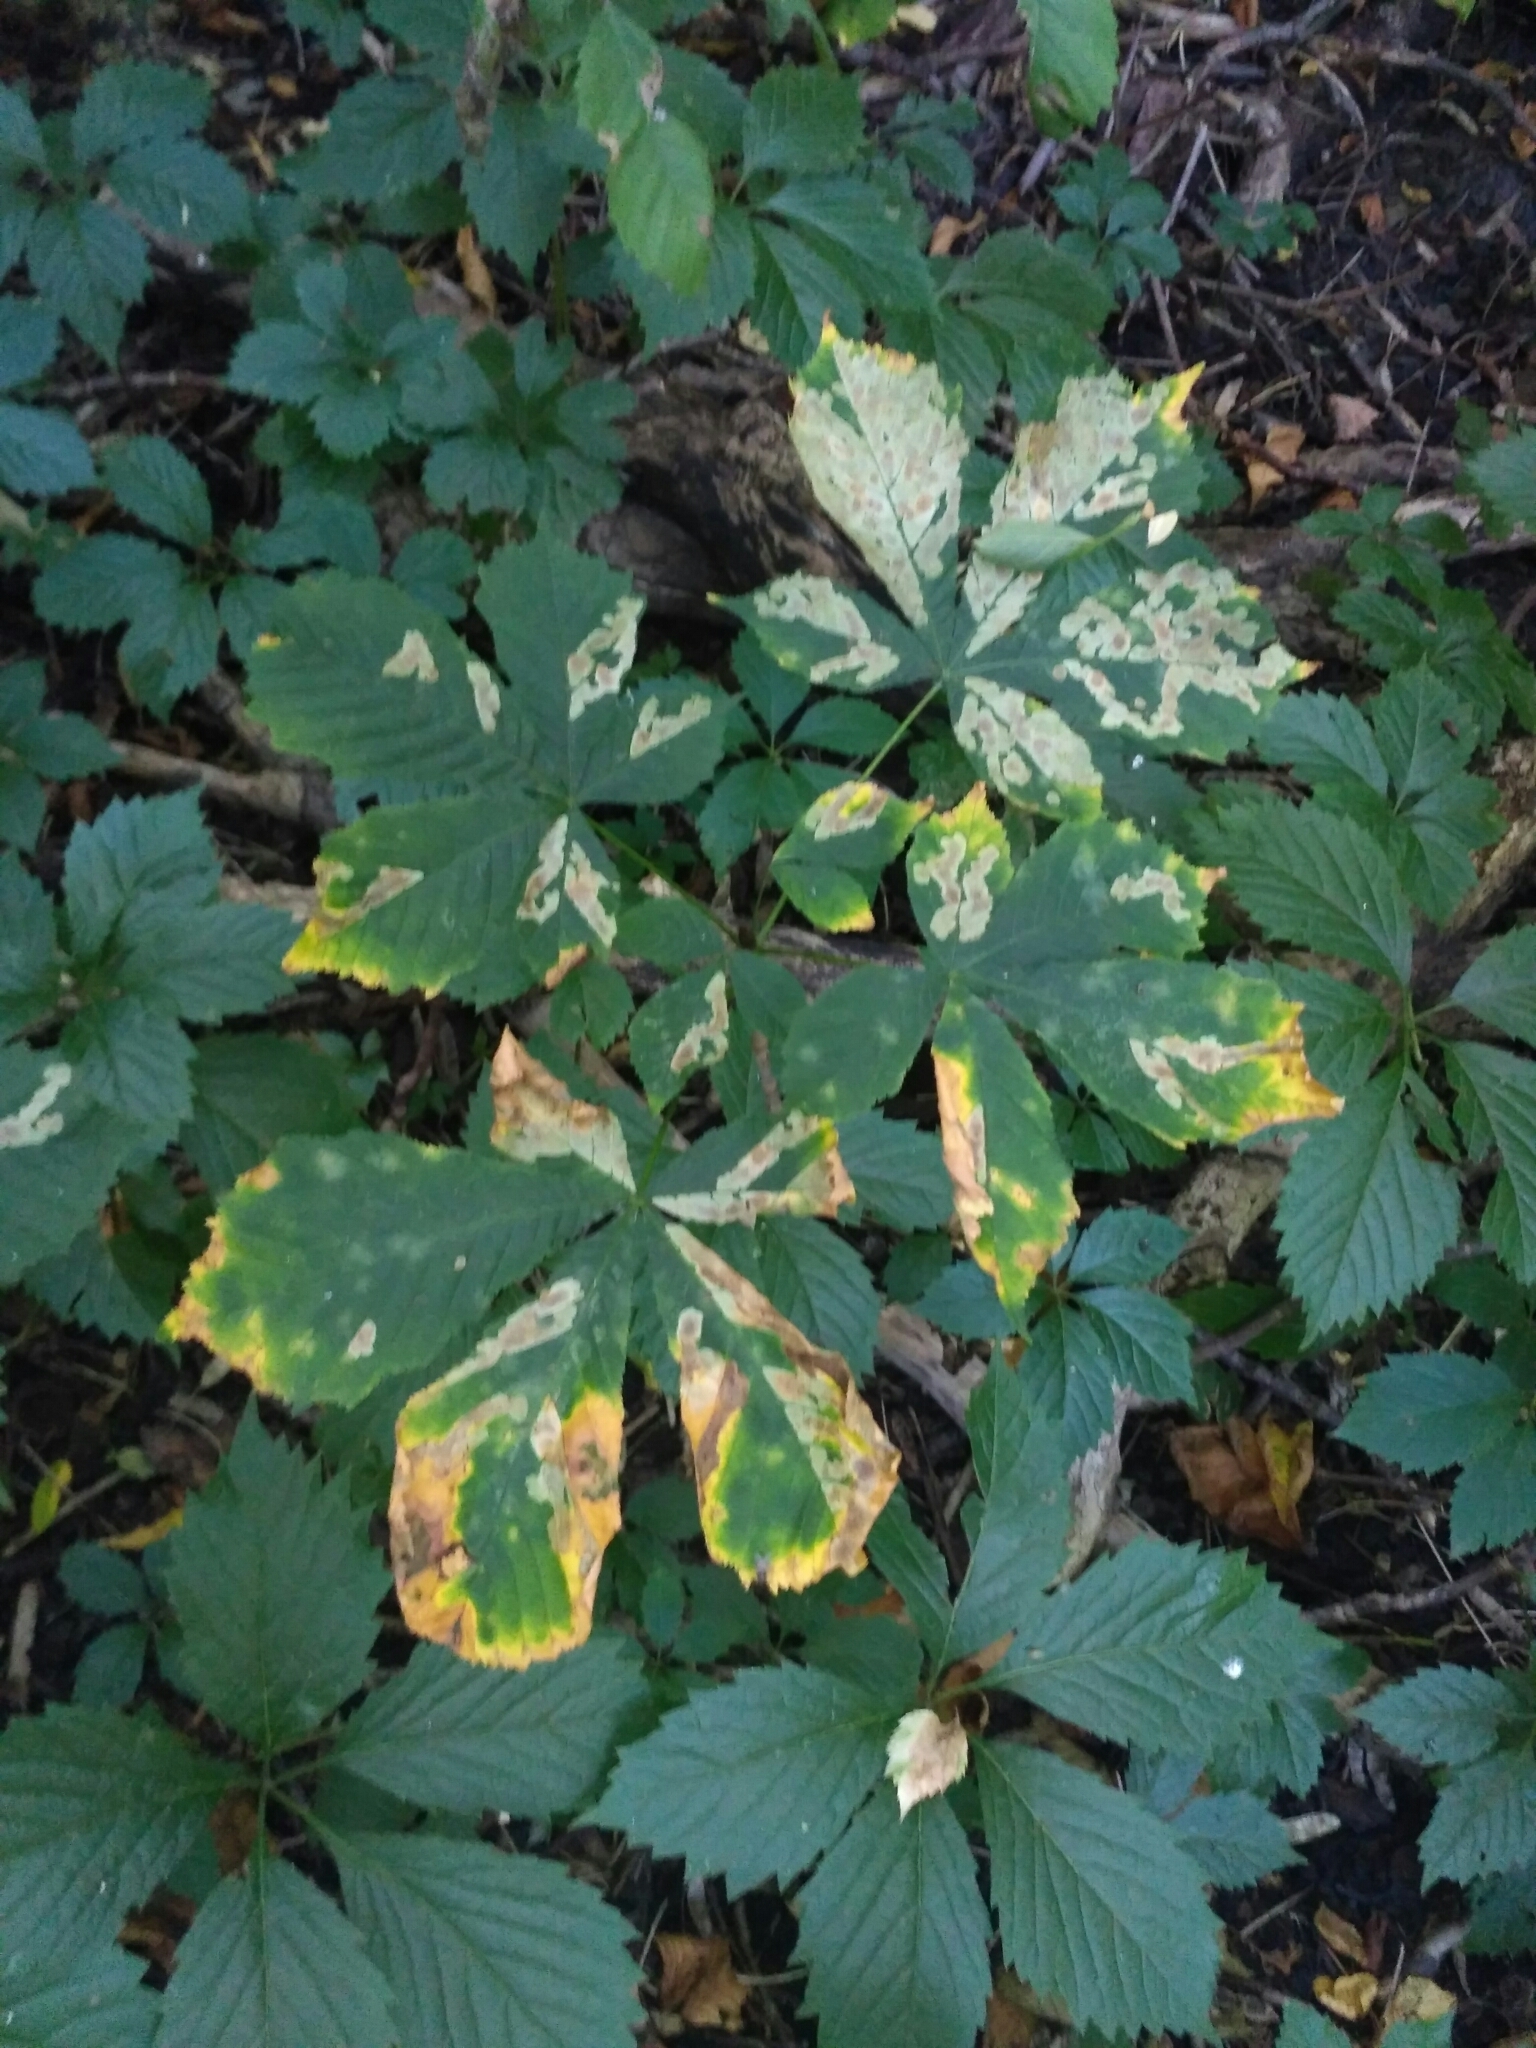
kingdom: Animalia
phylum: Arthropoda
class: Insecta
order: Lepidoptera
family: Gracillariidae
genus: Cameraria
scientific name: Cameraria ohridella
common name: Horse-chestnut leaf-miner
